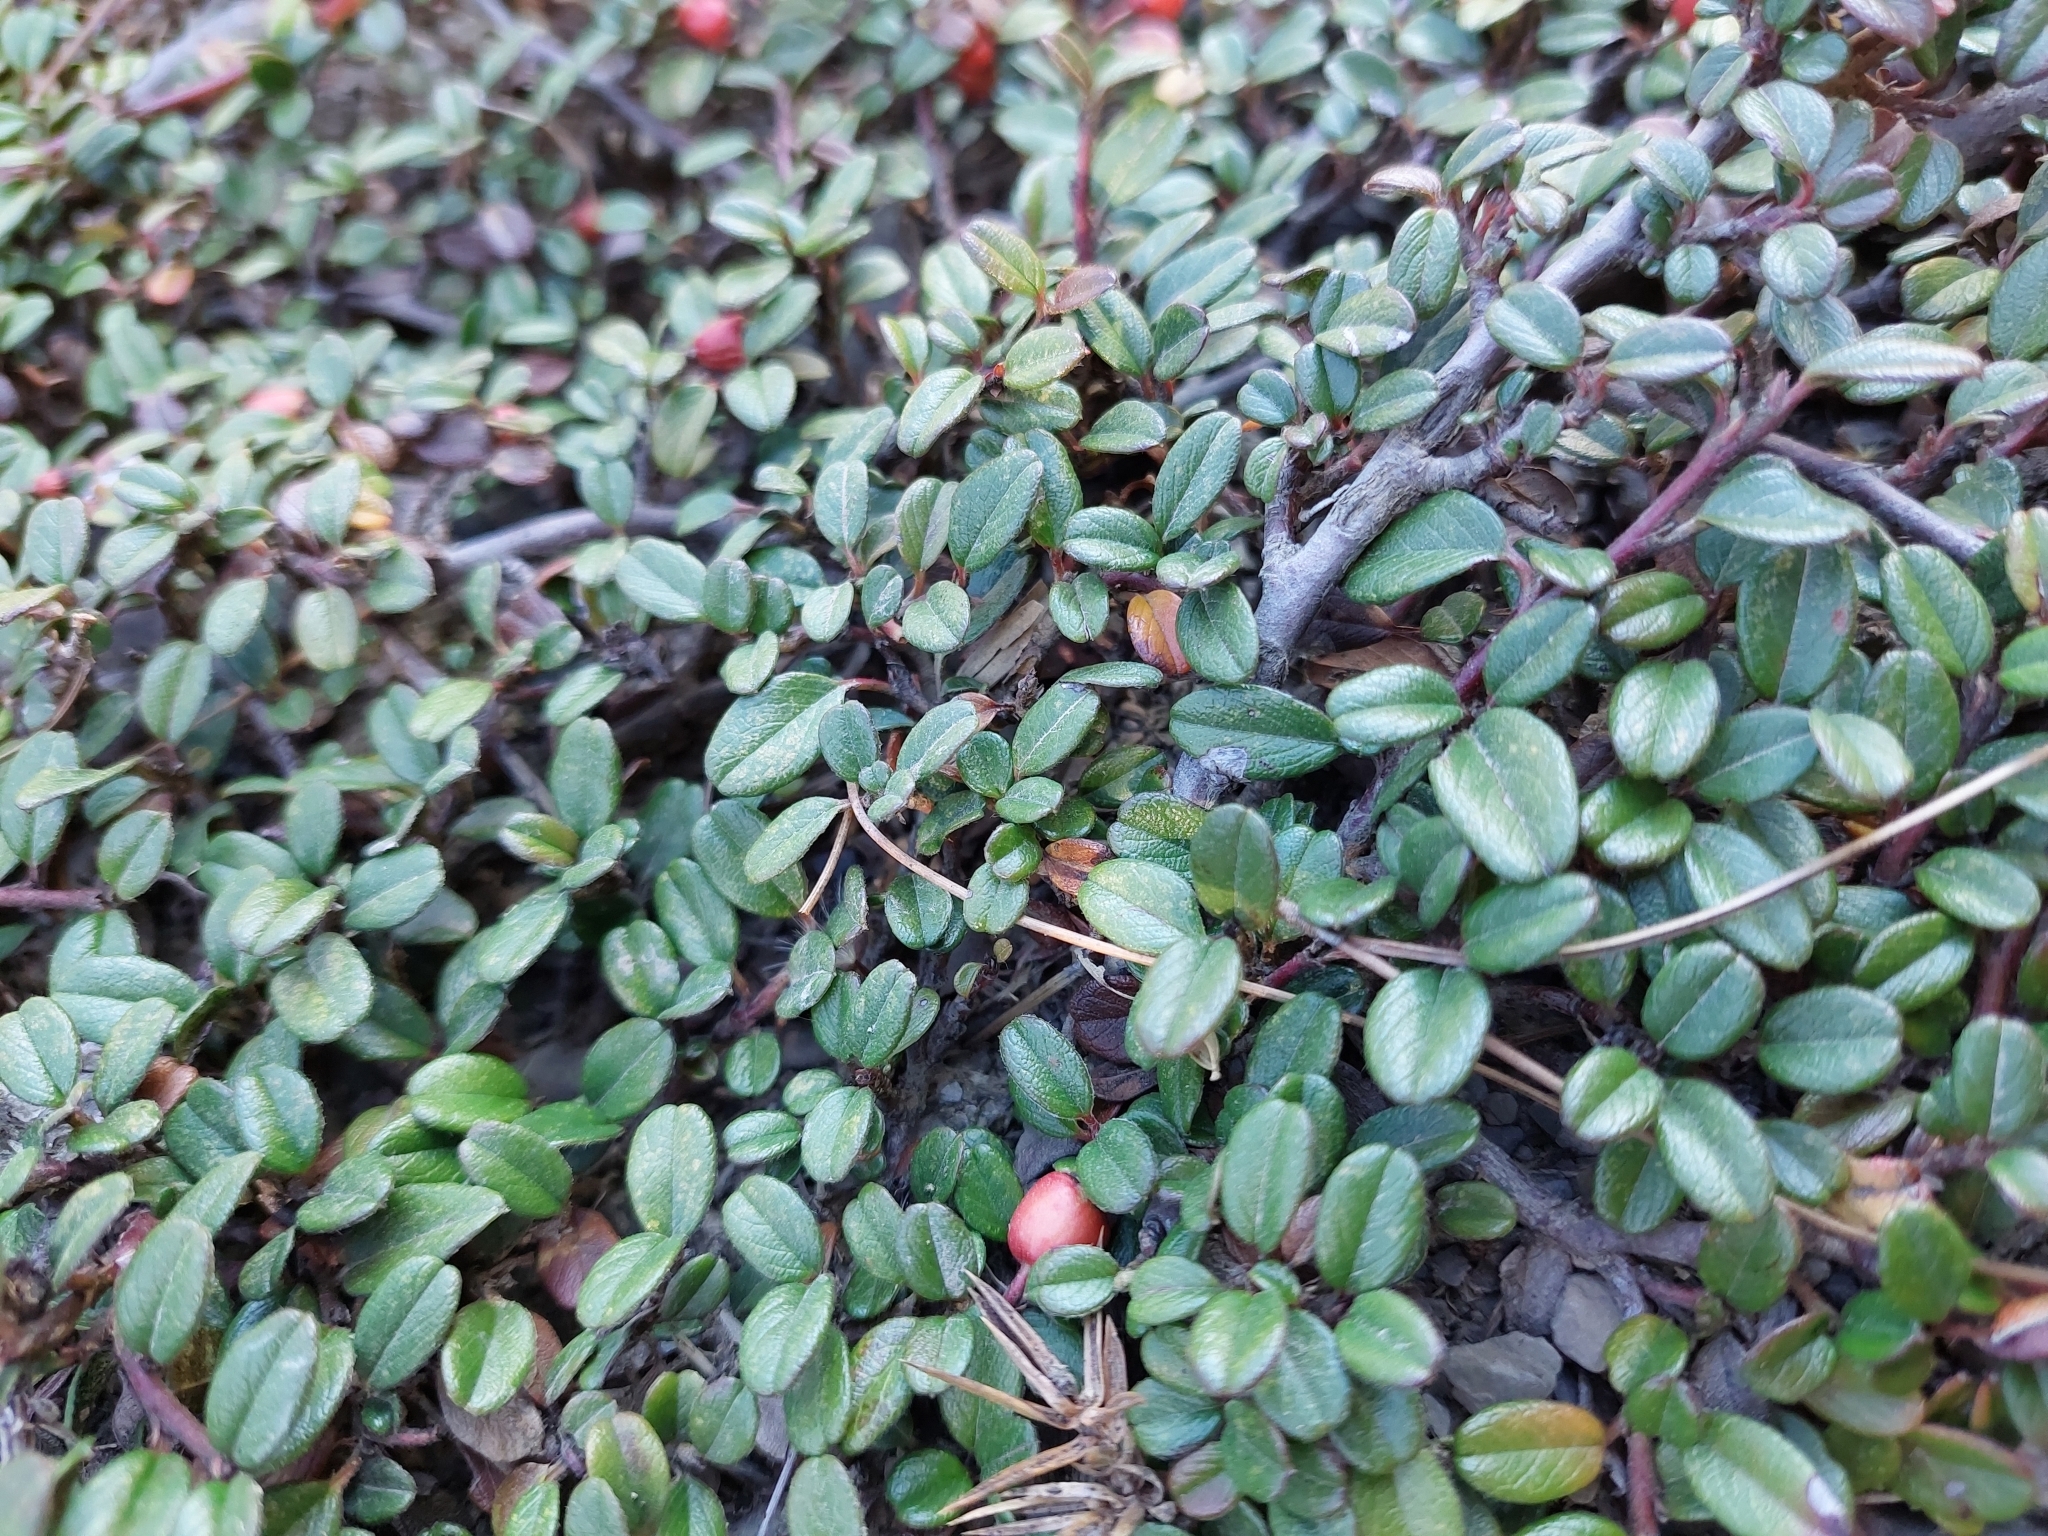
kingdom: Plantae
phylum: Tracheophyta
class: Magnoliopsida
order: Rosales
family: Rosaceae
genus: Cotoneaster
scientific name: Cotoneaster morrisonensis
